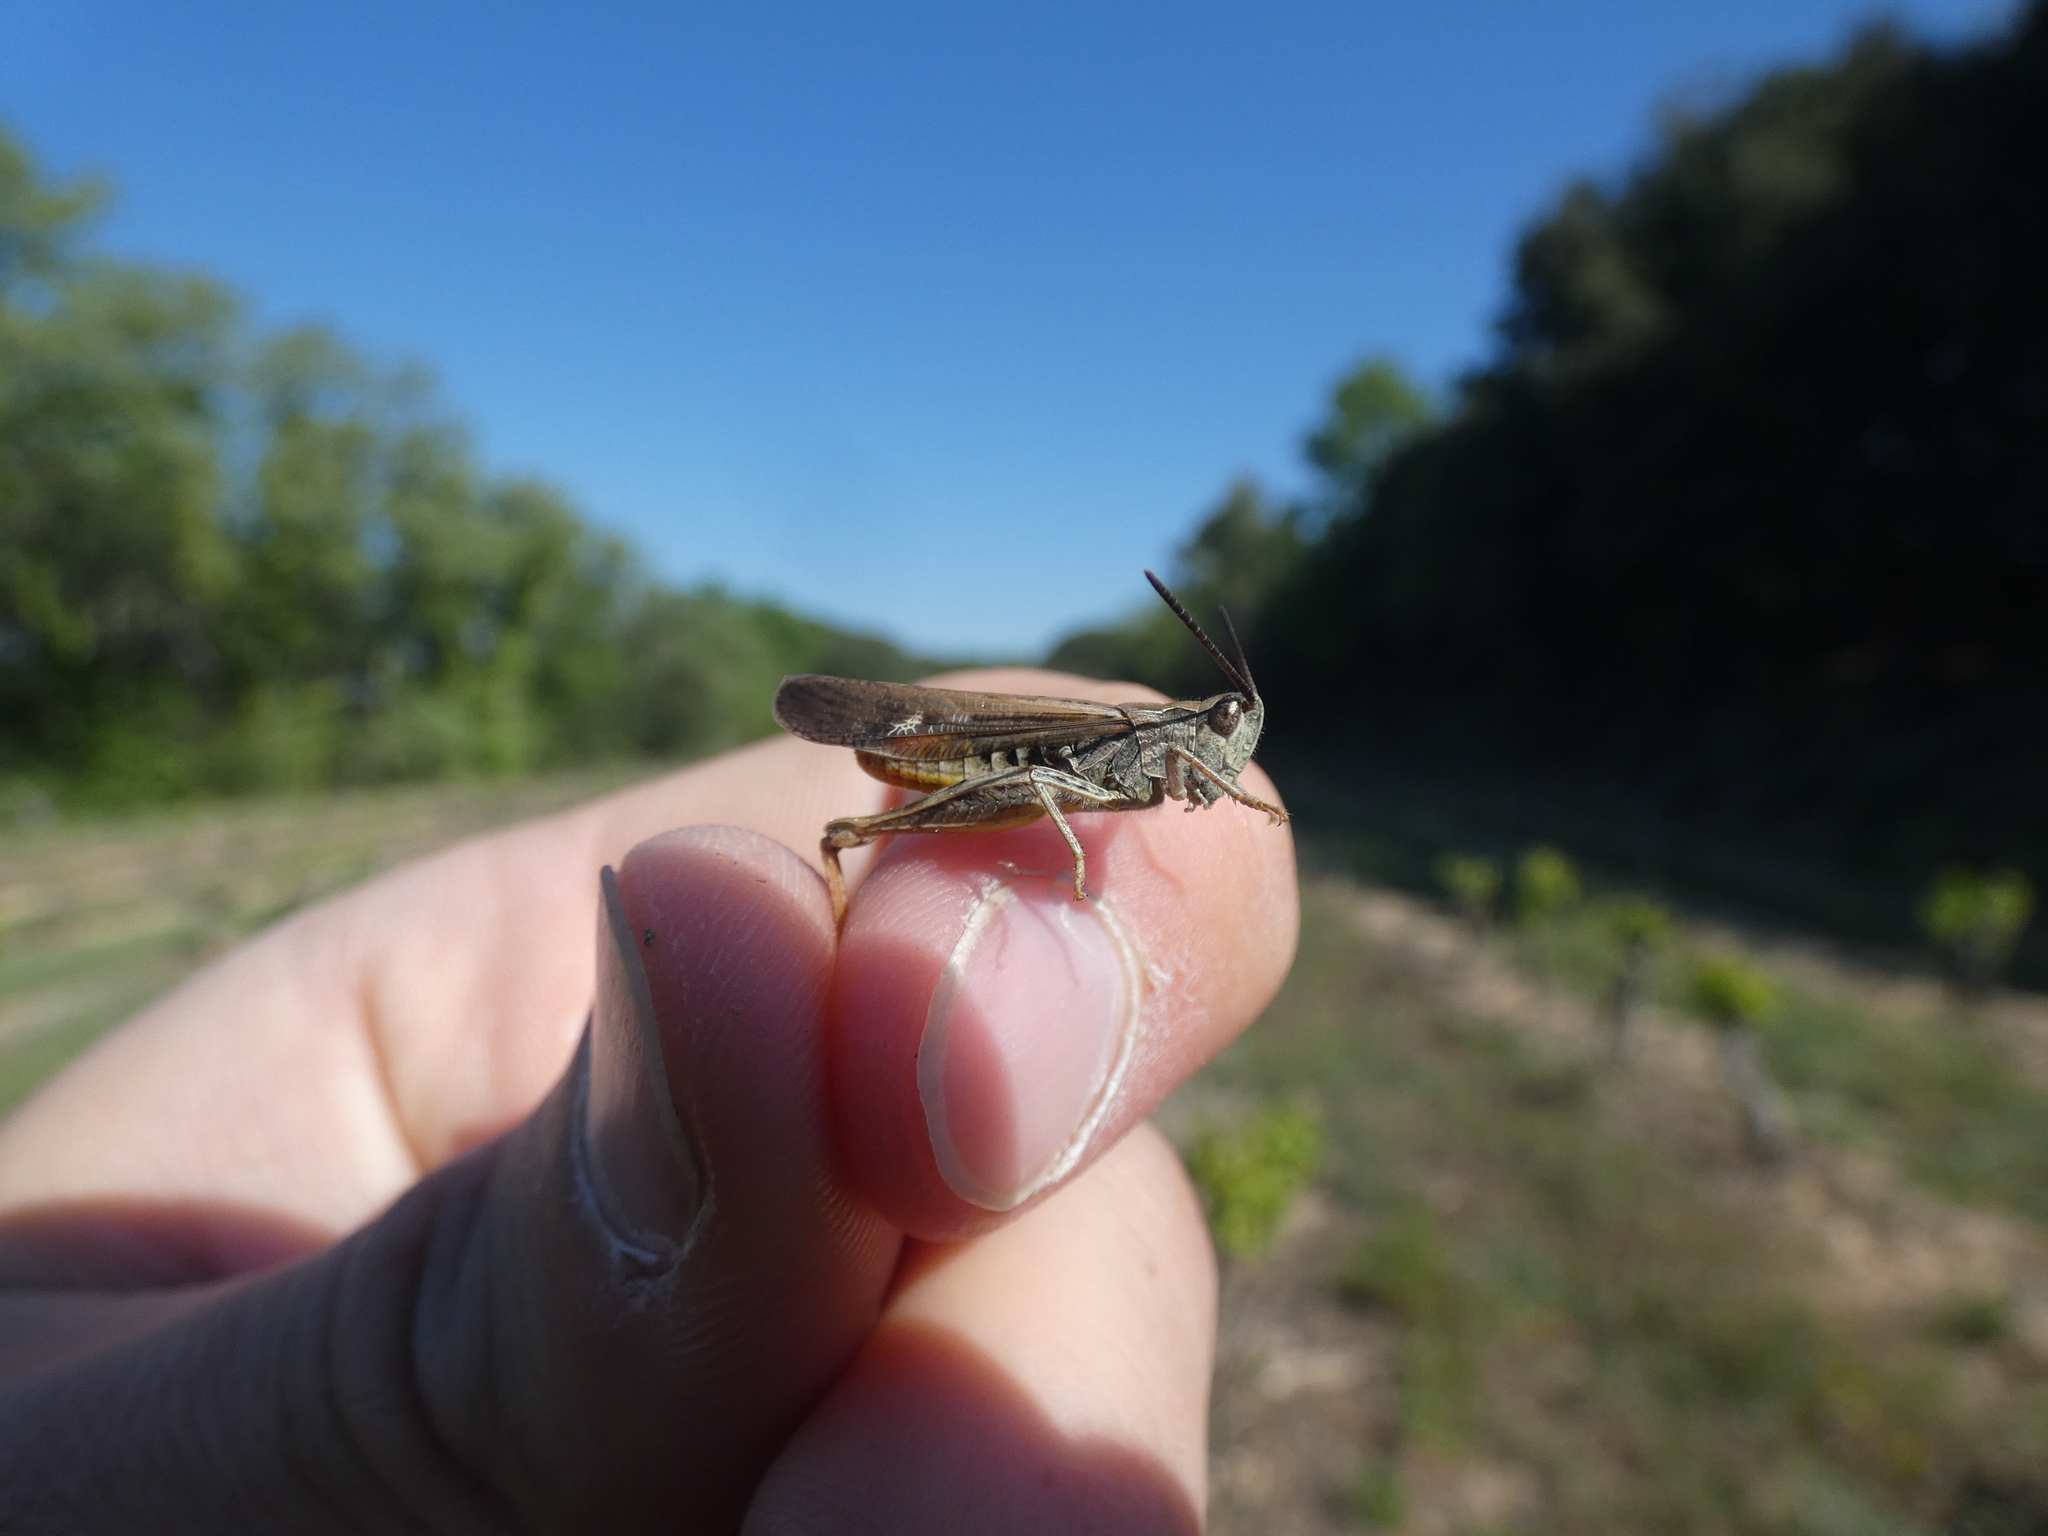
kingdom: Animalia
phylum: Arthropoda
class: Insecta
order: Orthoptera
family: Acrididae
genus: Chorthippus
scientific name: Chorthippus brunneus
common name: Field grasshopper
